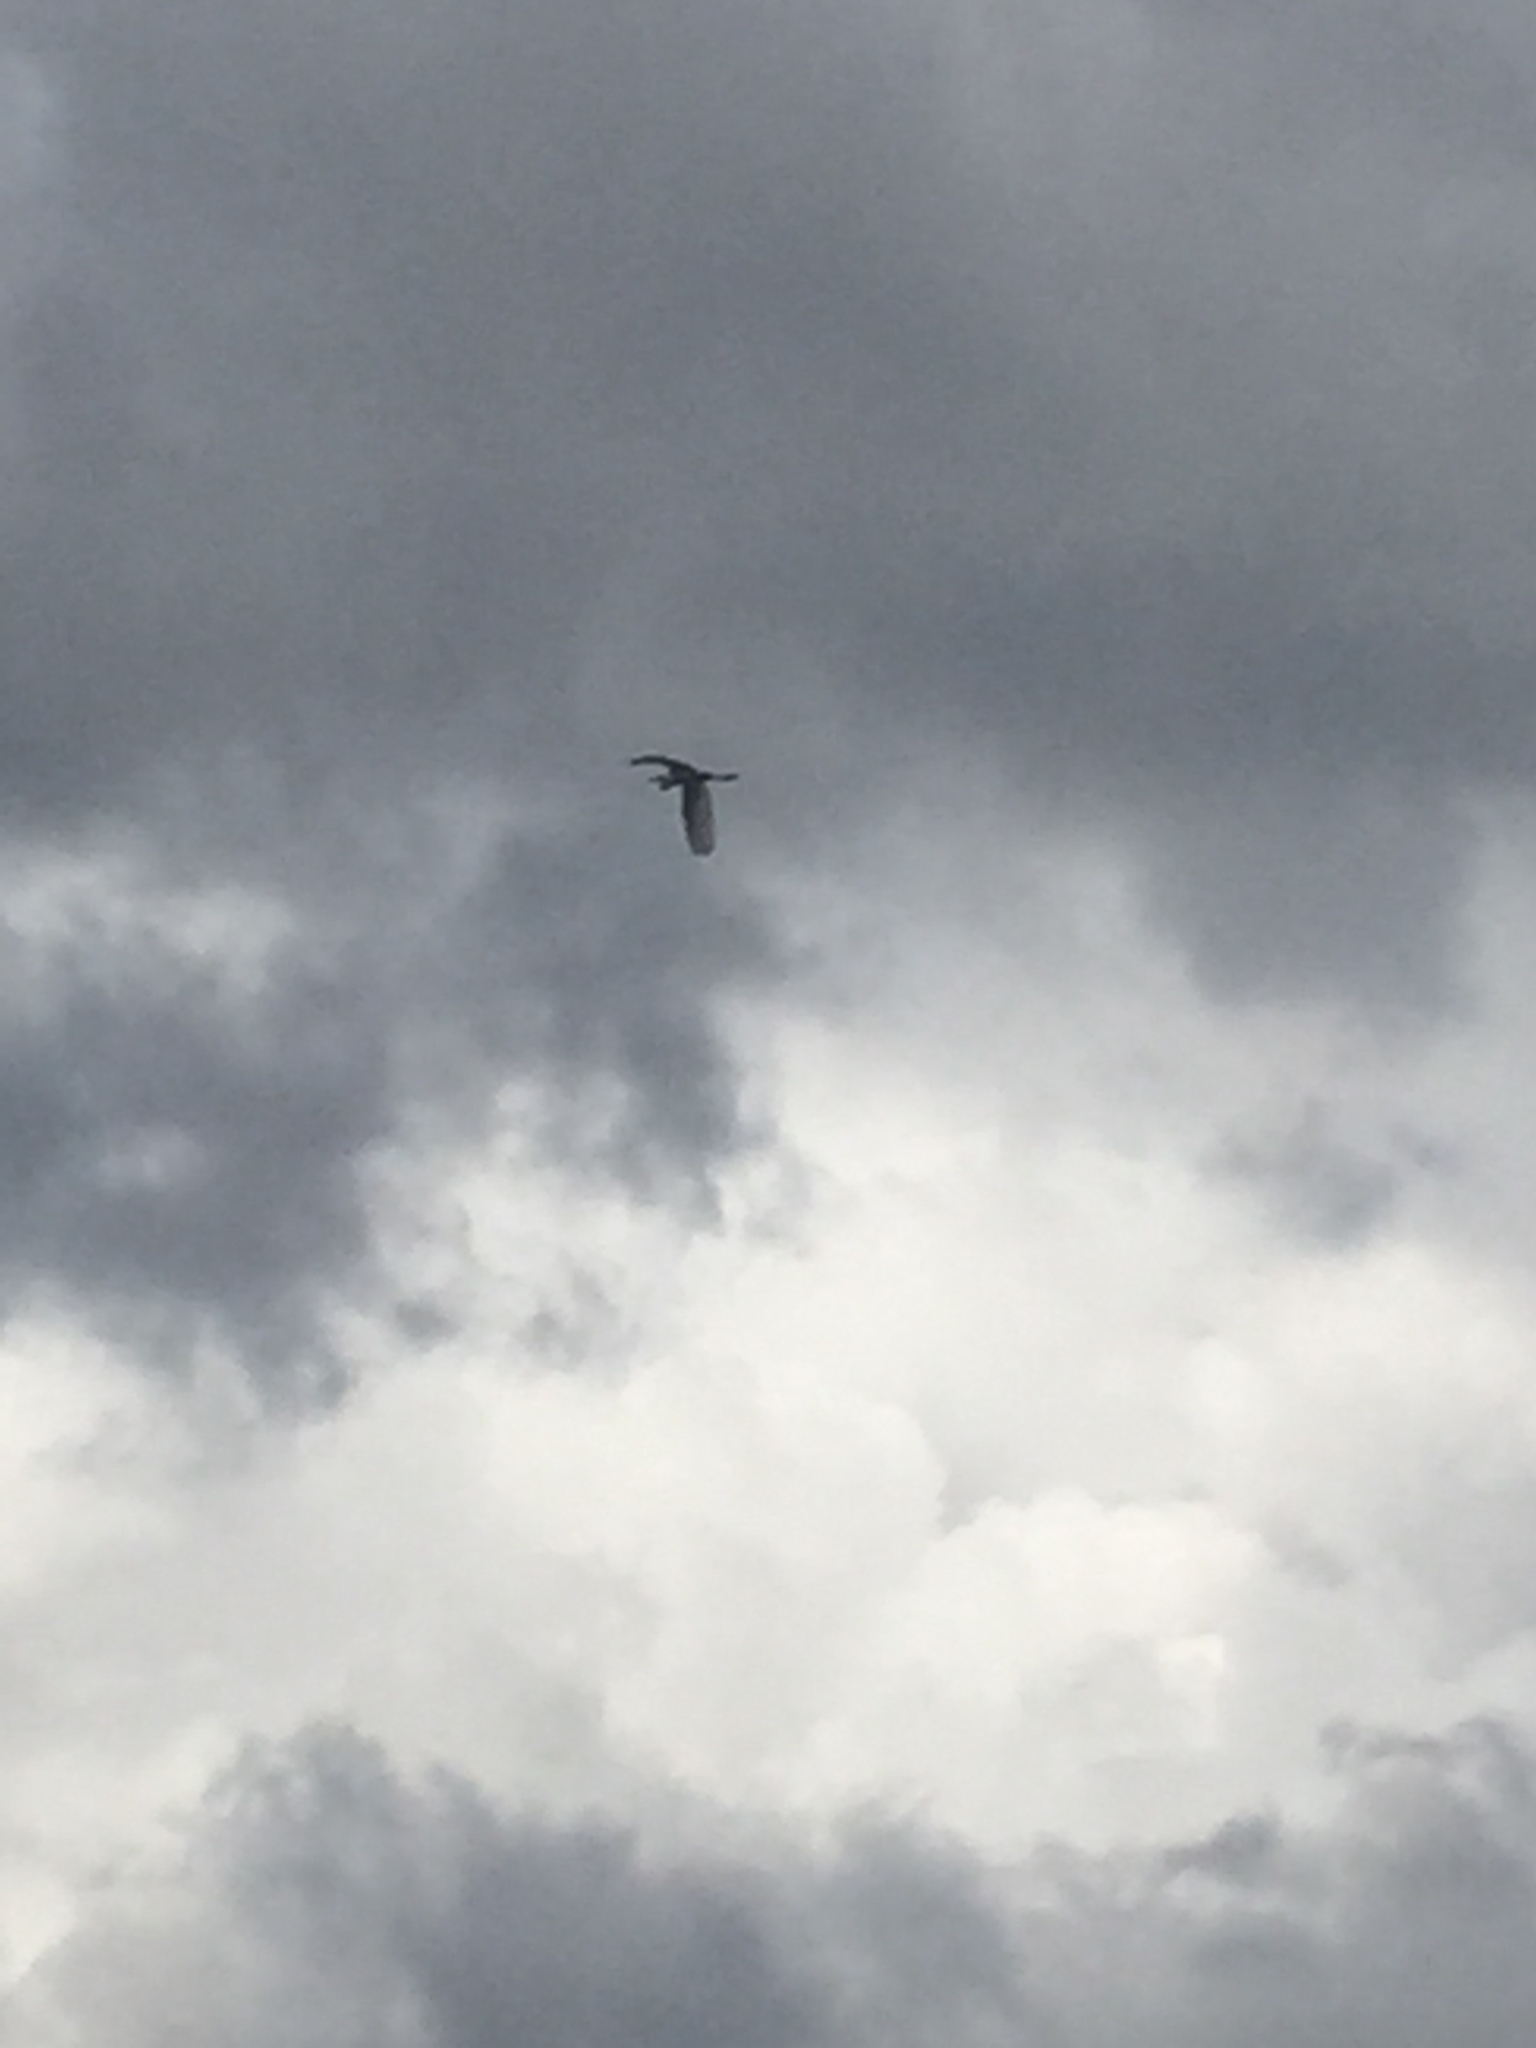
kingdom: Animalia
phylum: Chordata
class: Aves
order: Pelecaniformes
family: Ardeidae
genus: Ardea
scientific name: Ardea alba
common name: Great egret
